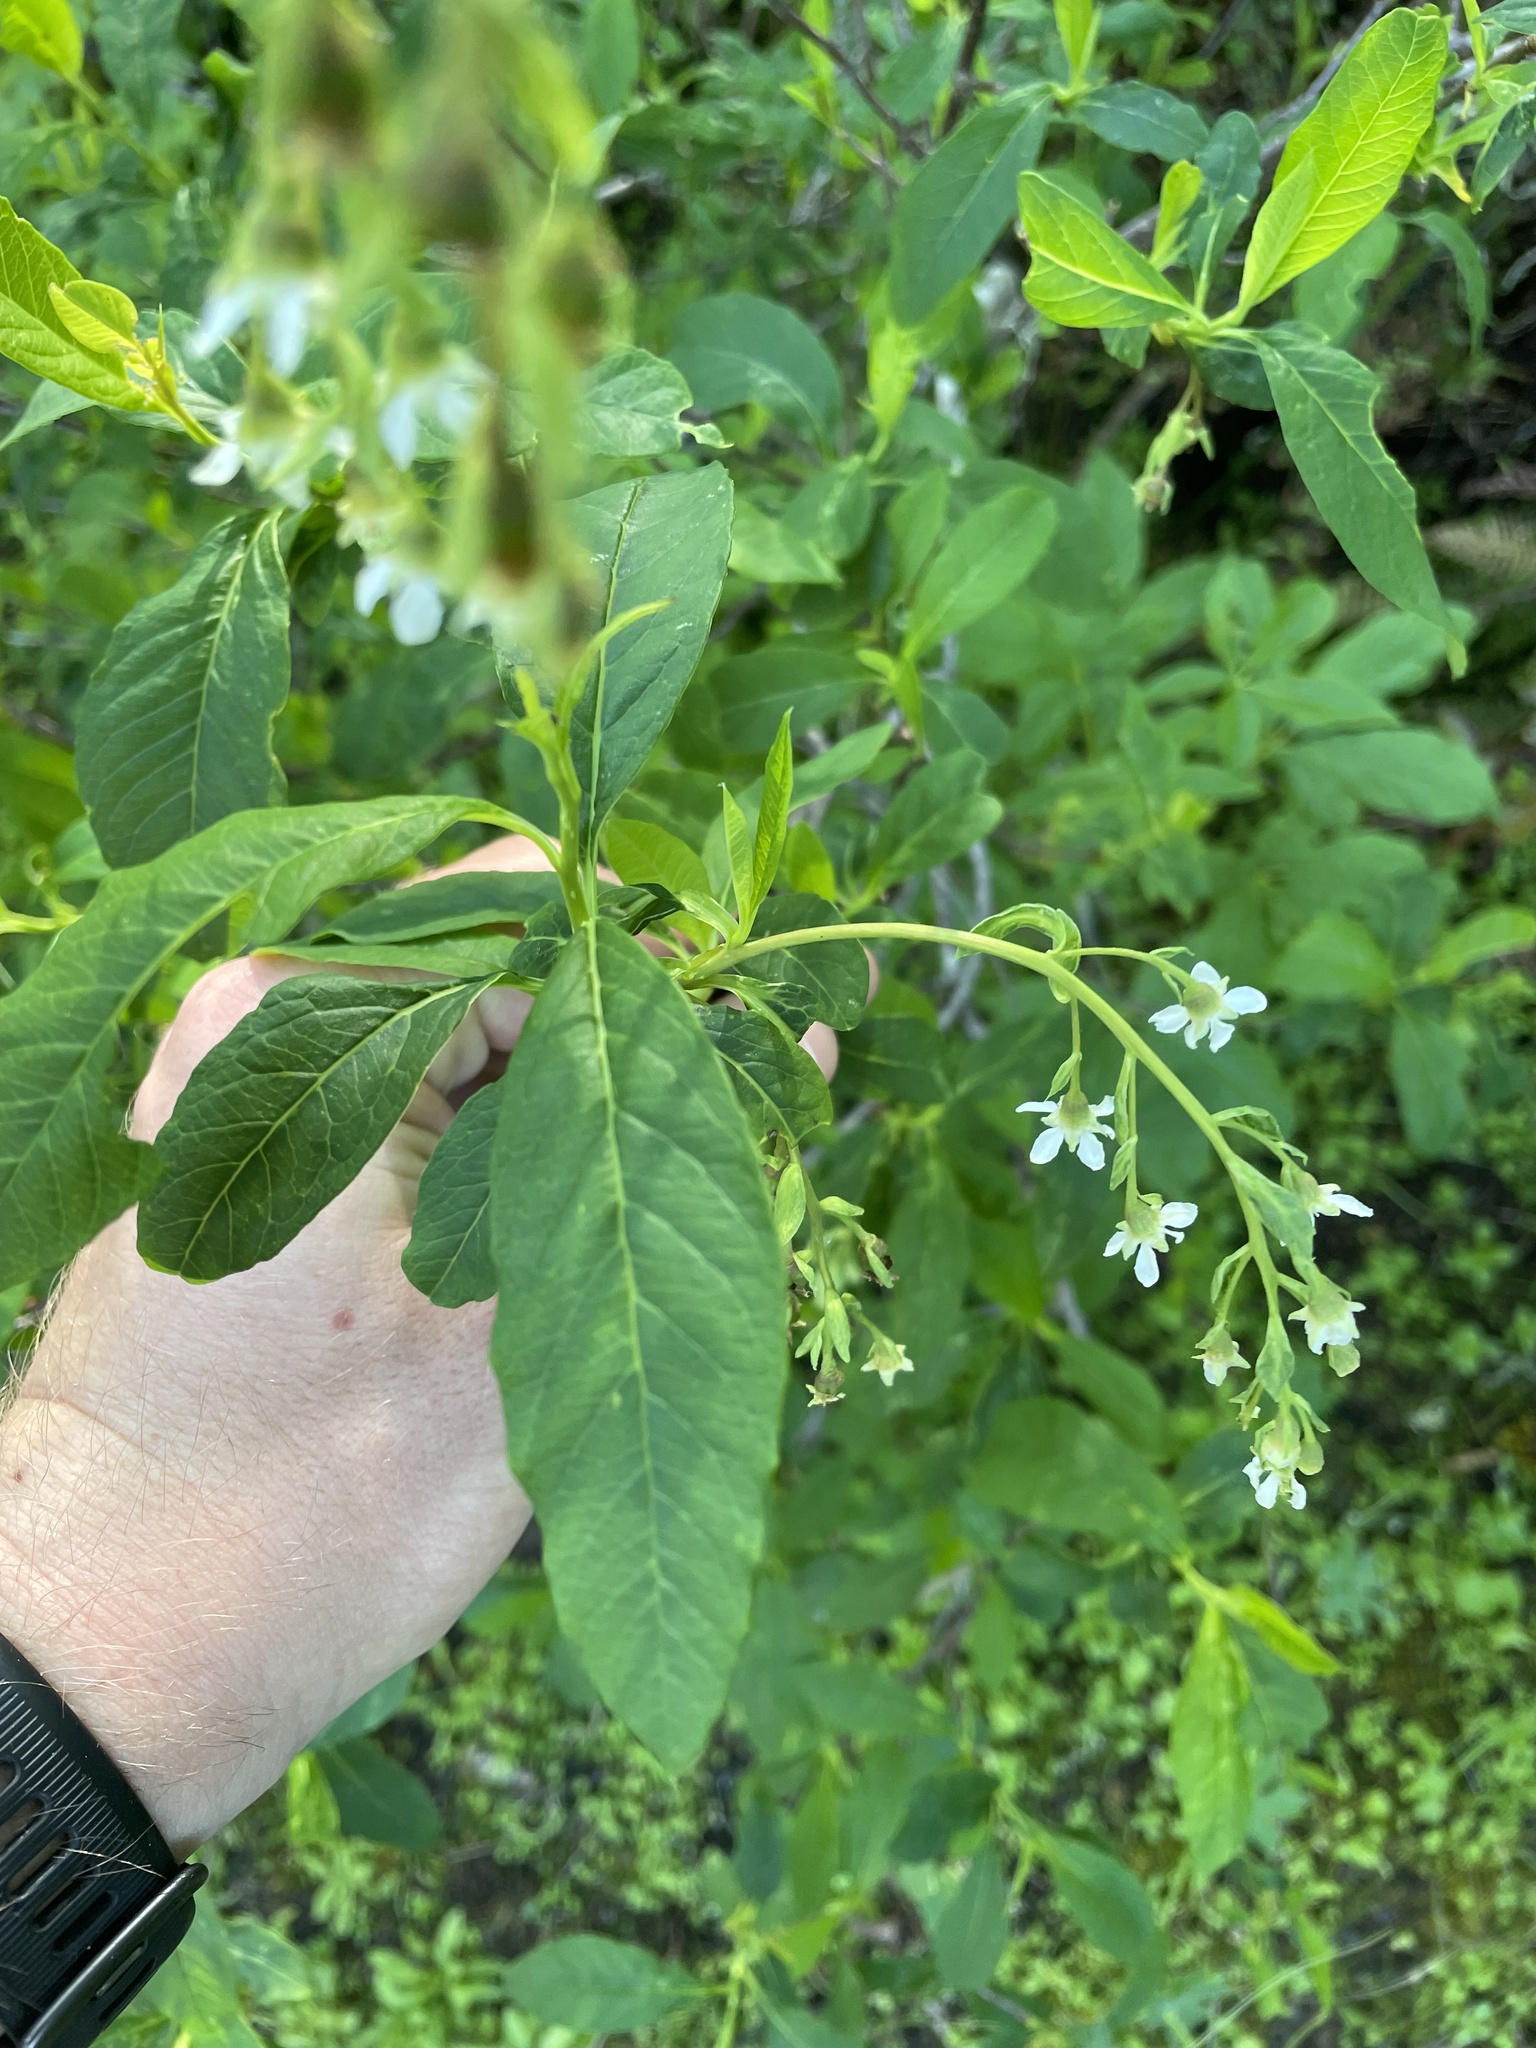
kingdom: Plantae
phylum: Tracheophyta
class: Magnoliopsida
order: Rosales
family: Rosaceae
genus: Oemleria
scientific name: Oemleria cerasiformis
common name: Osoberry
